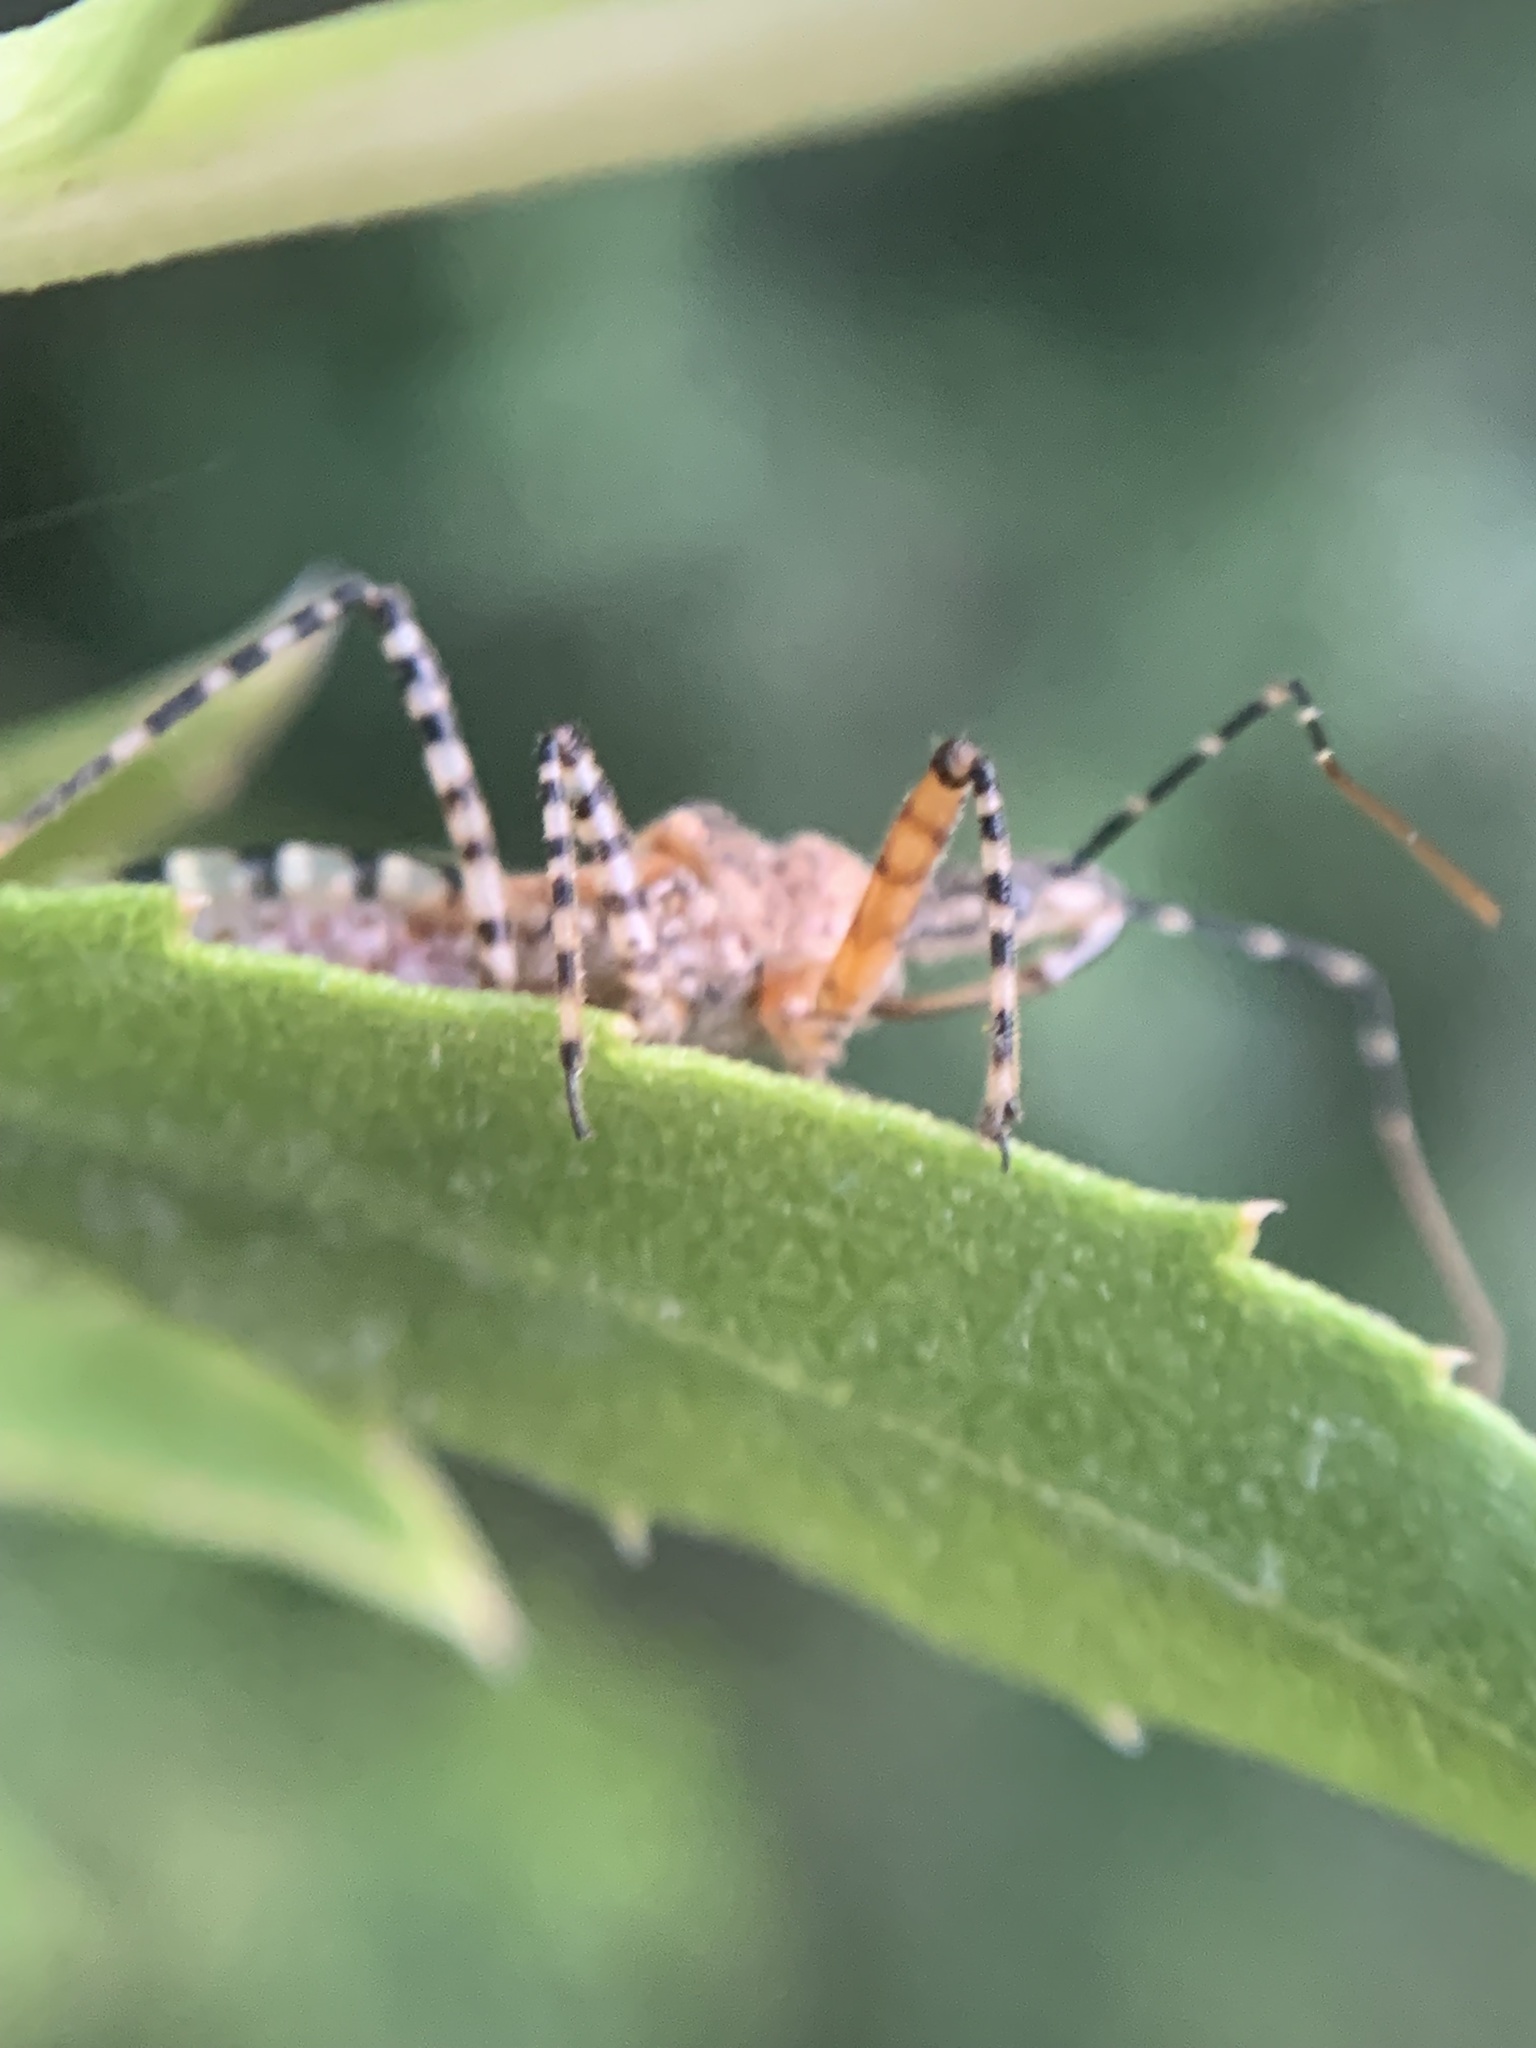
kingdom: Animalia
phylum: Arthropoda
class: Insecta
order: Hemiptera
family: Reduviidae
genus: Cosmoclopius
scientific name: Cosmoclopius nigroannulatus
